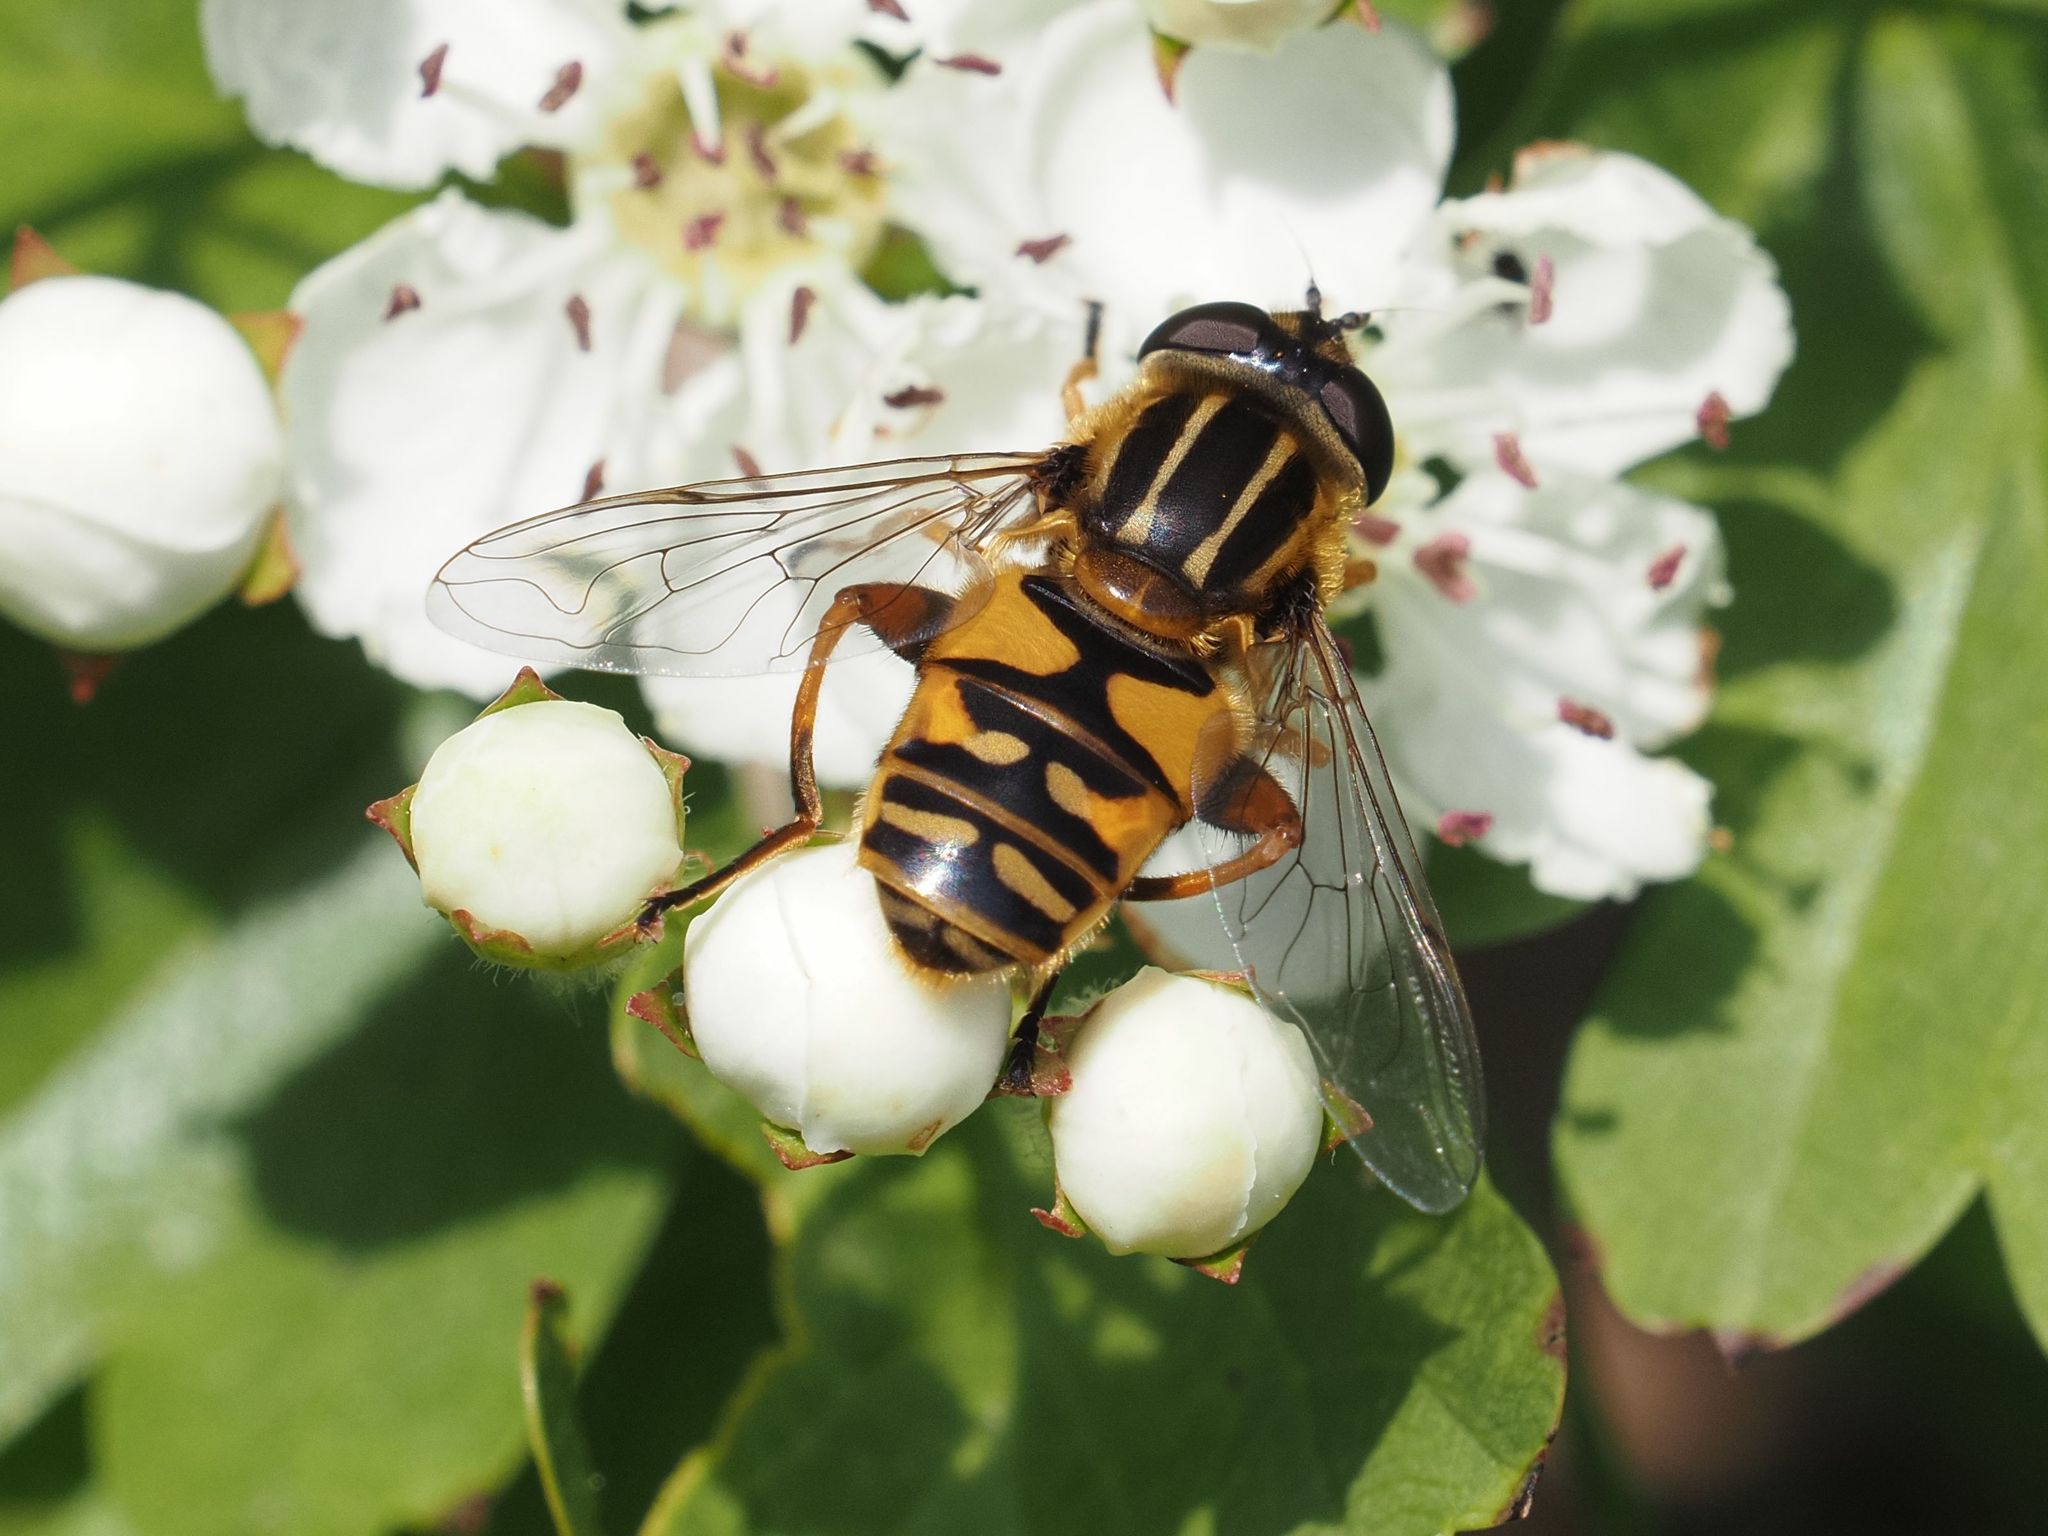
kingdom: Animalia
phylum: Arthropoda
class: Insecta
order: Diptera
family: Syrphidae
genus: Helophilus
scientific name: Helophilus pendulus
